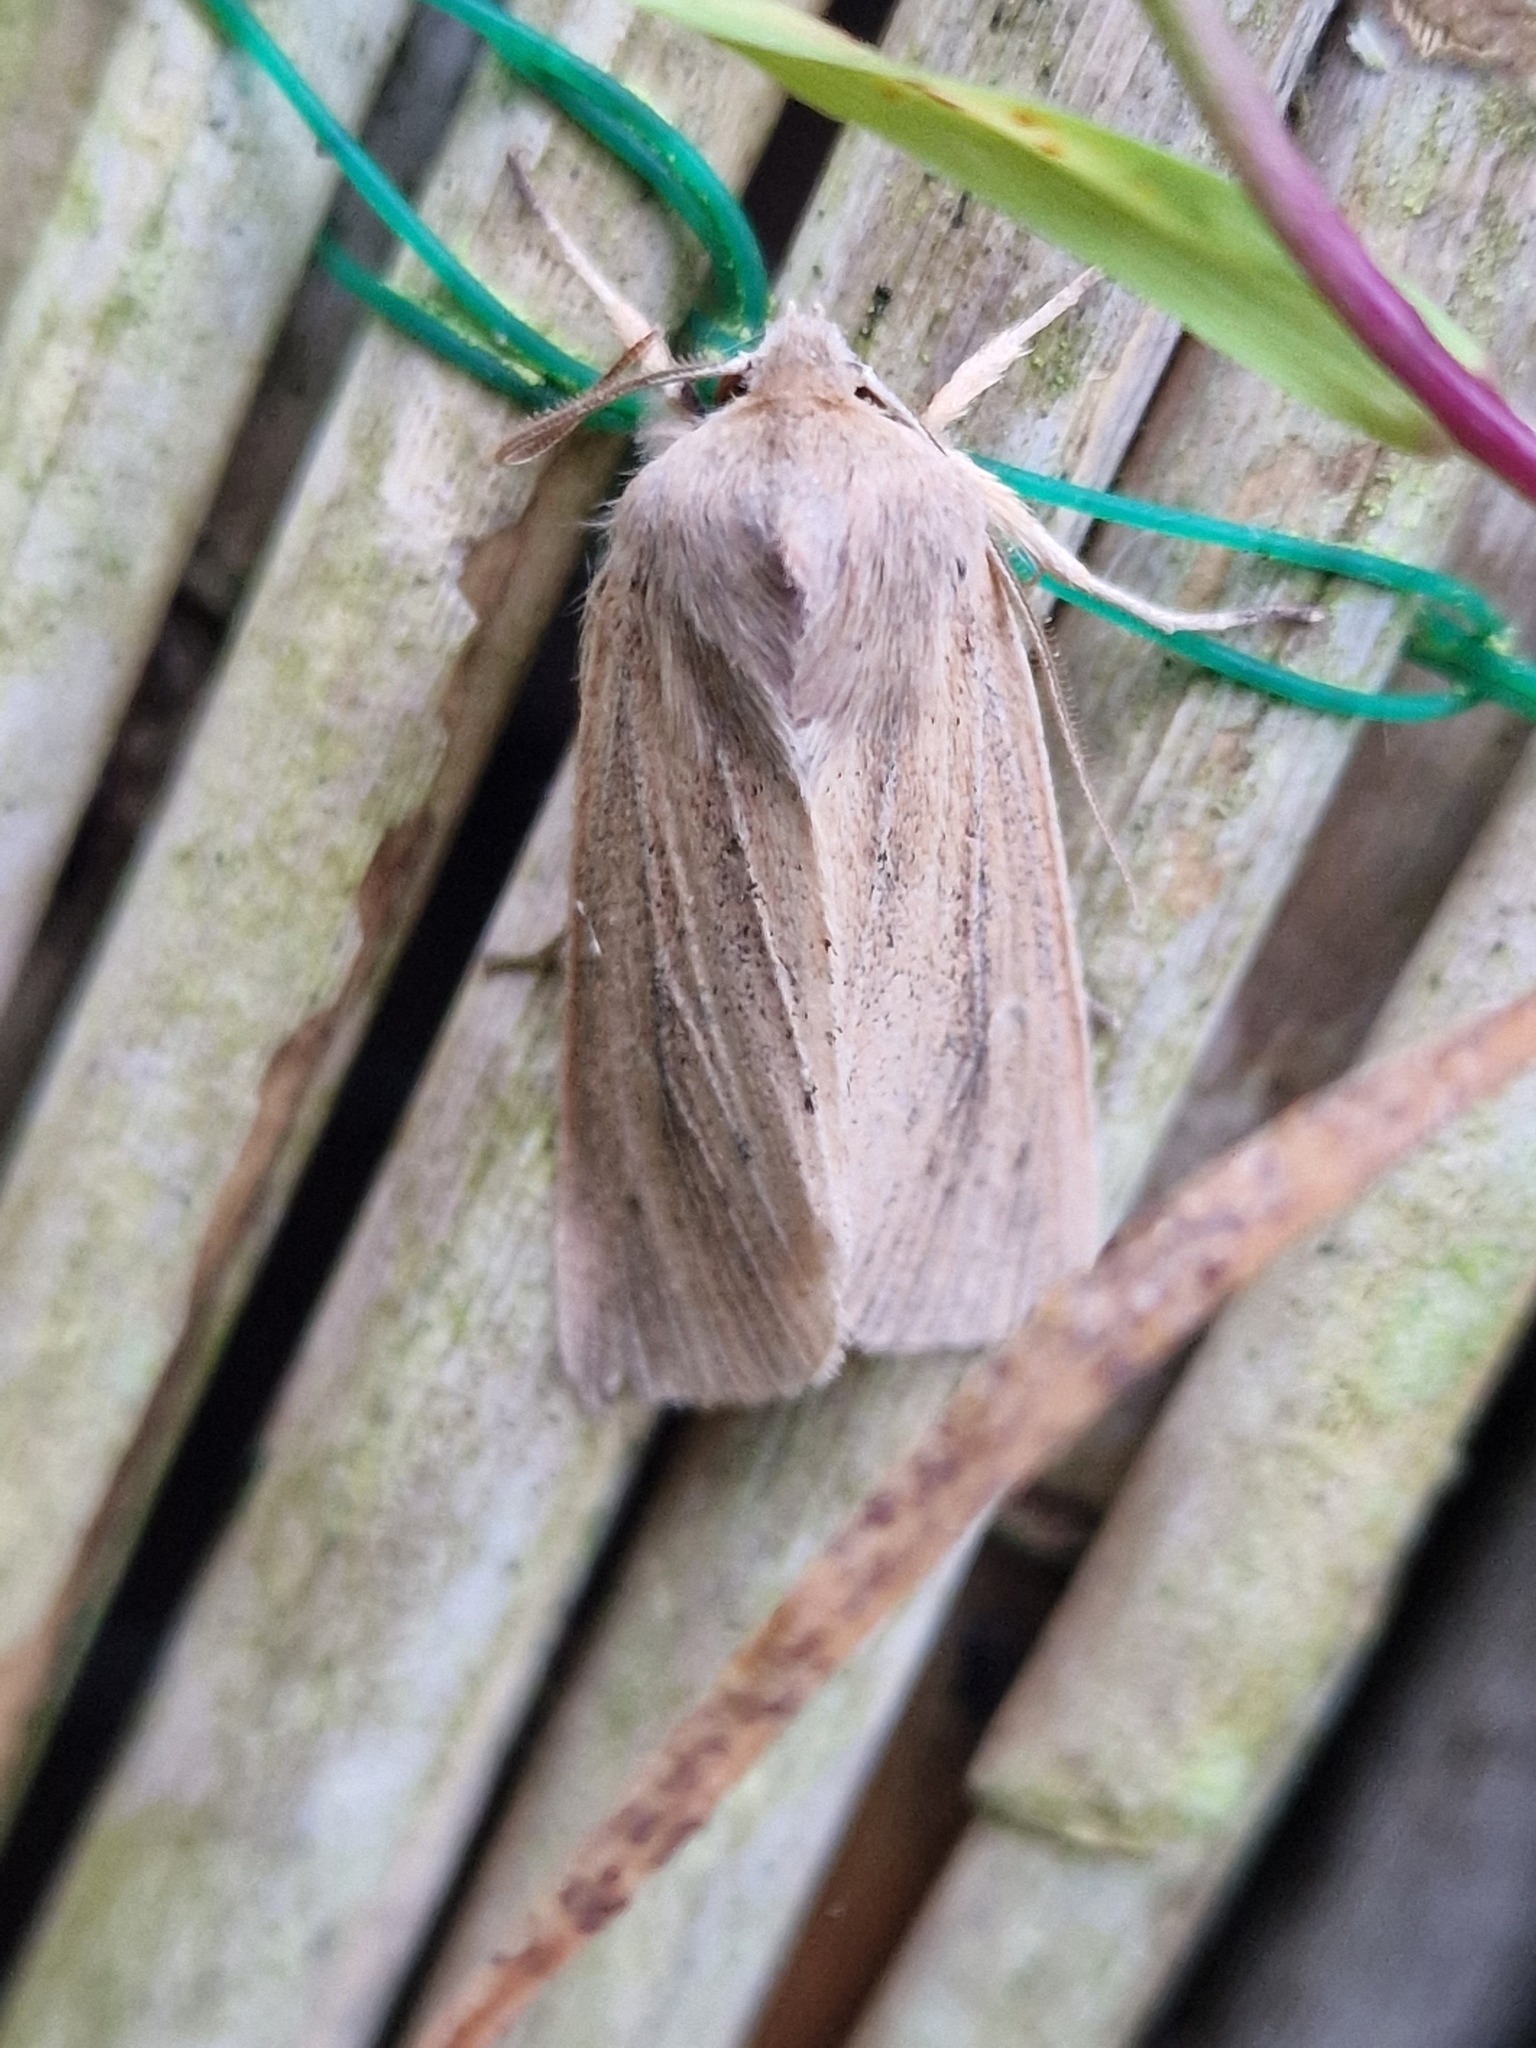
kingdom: Animalia
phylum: Arthropoda
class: Insecta
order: Lepidoptera
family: Noctuidae
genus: Rhizedra
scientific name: Rhizedra lutosa
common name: Large wainscot
